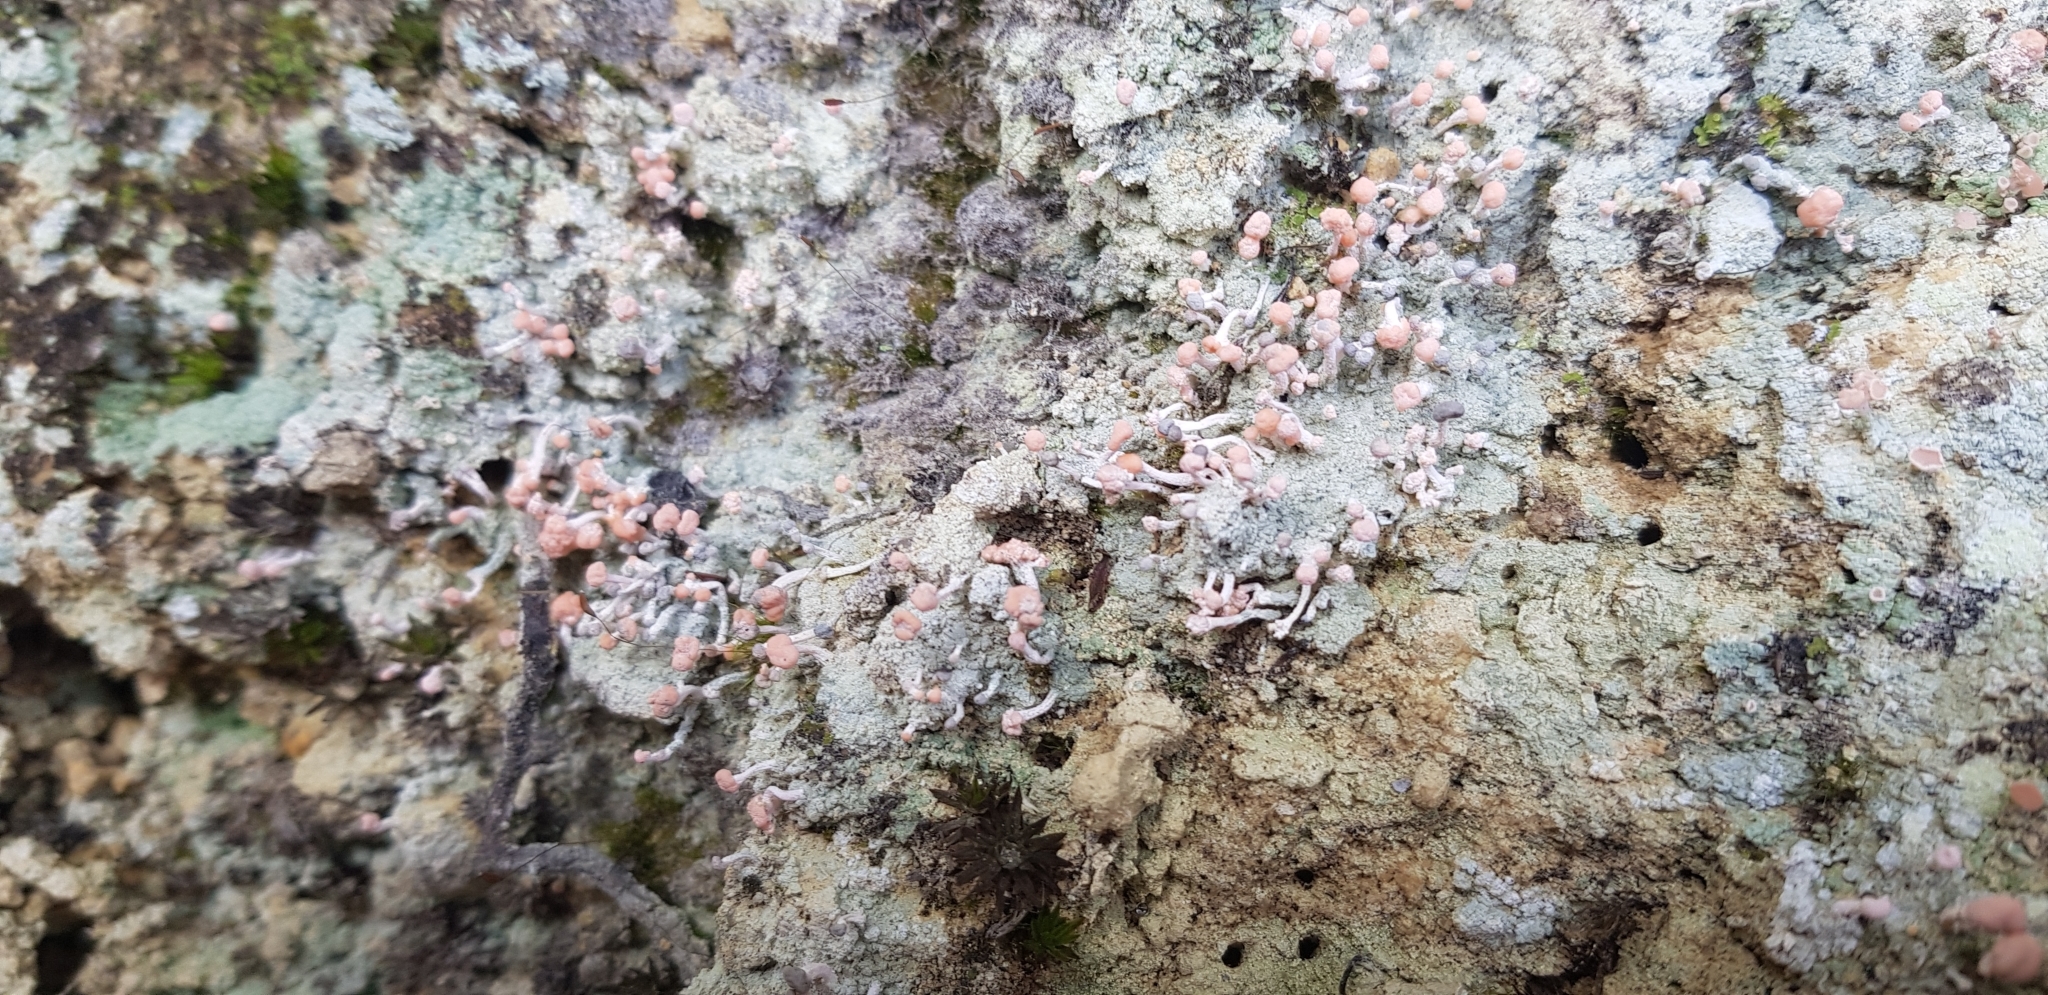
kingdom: Fungi
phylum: Ascomycota
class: Lecanoromycetes
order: Pertusariales
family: Icmadophilaceae
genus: Dibaeis
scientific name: Dibaeis arcuata
